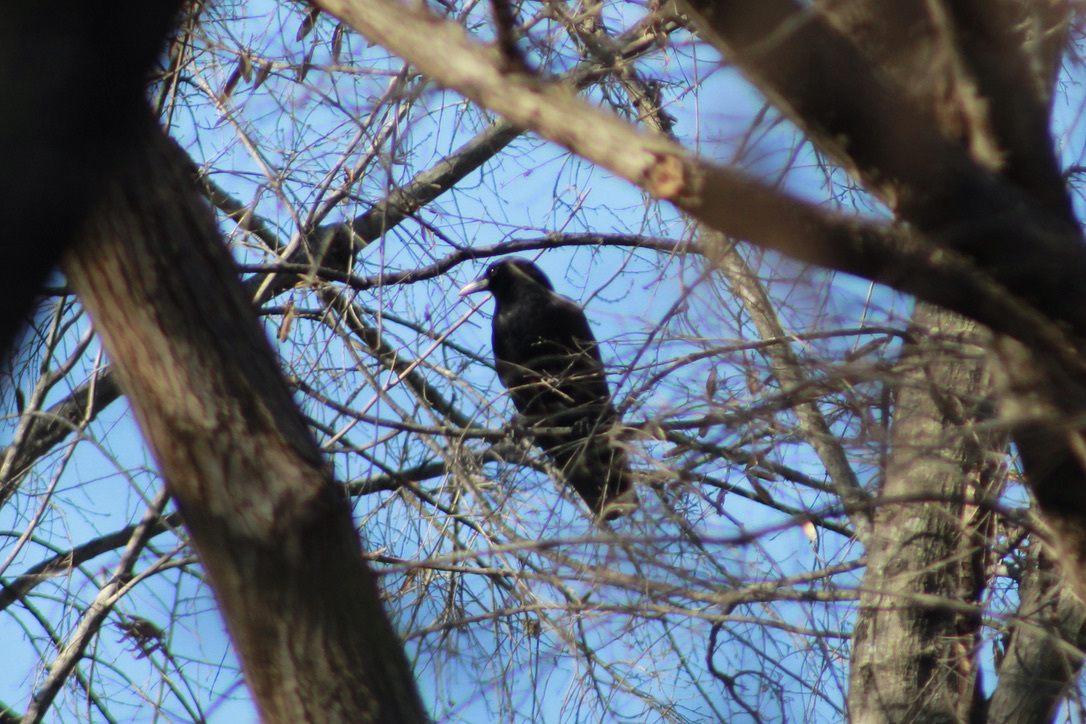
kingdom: Animalia
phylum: Chordata
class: Aves
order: Passeriformes
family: Corvidae
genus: Corvus
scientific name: Corvus brachyrhynchos
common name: American crow
